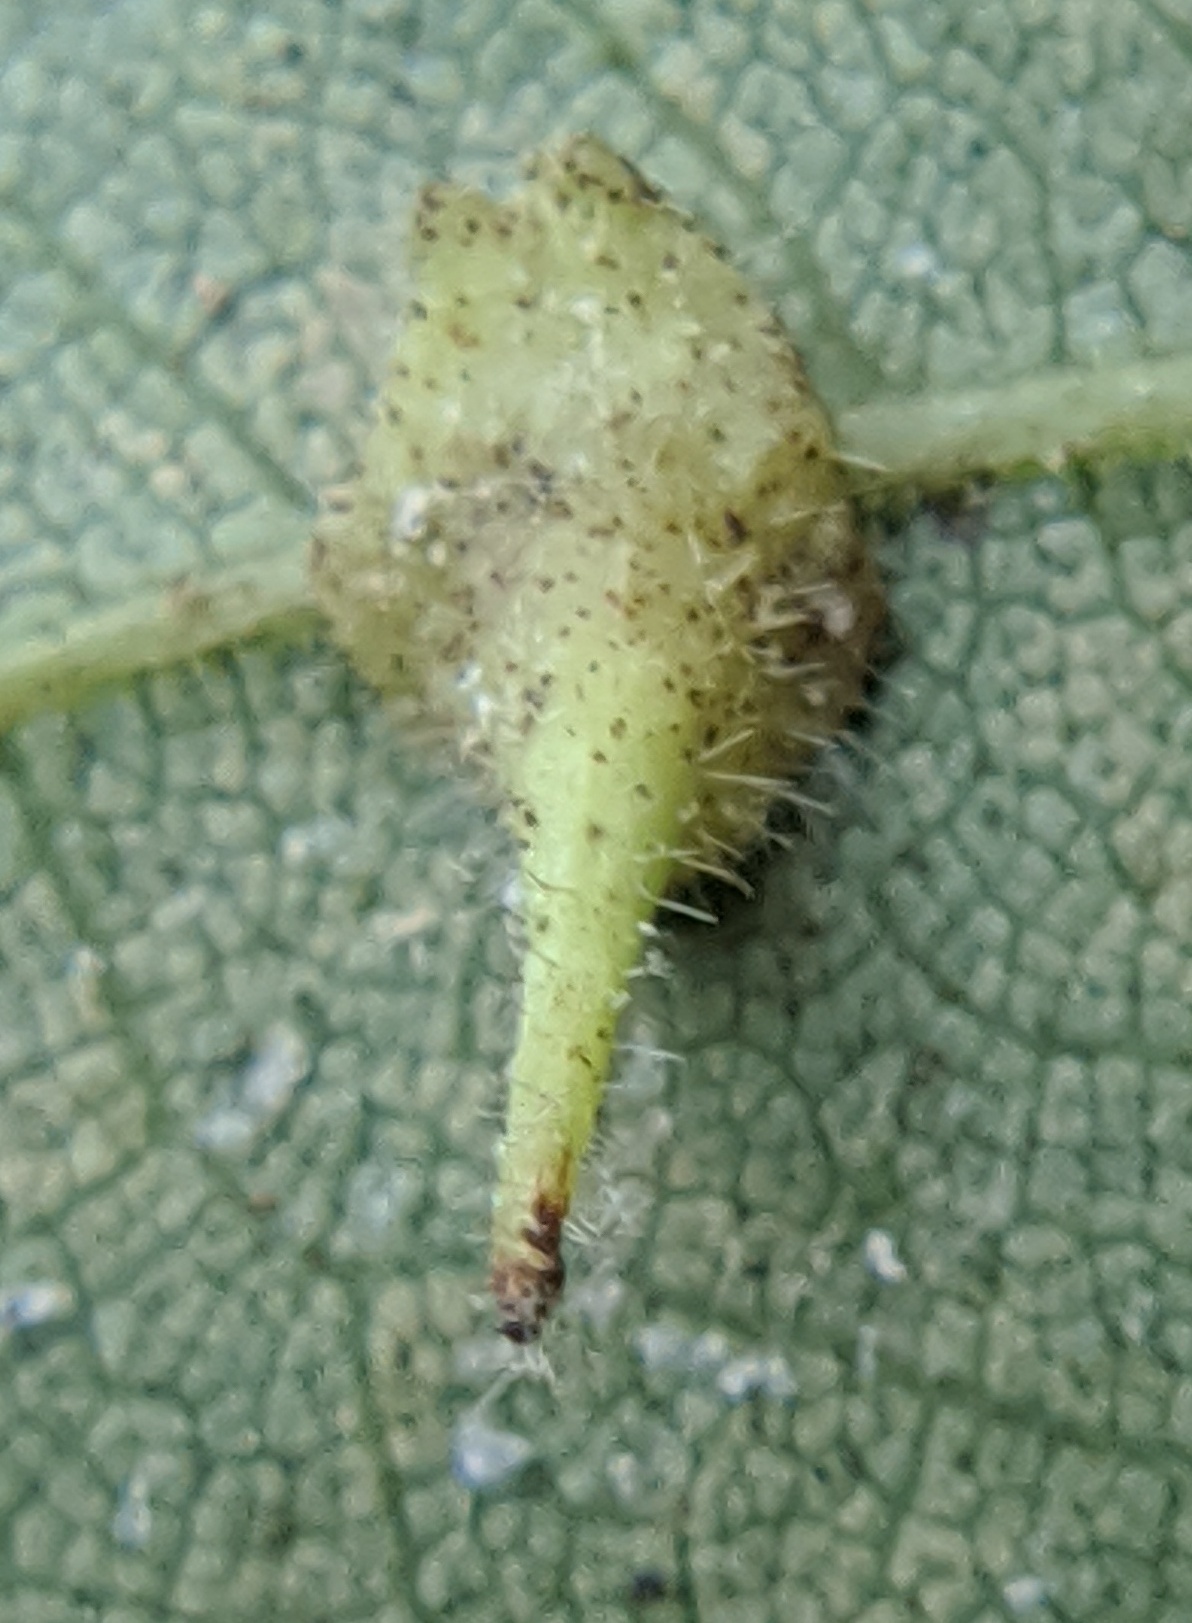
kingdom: Animalia
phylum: Arthropoda
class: Insecta
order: Diptera
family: Cecidomyiidae
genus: Caryomyia
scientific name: Caryomyia inclinata
